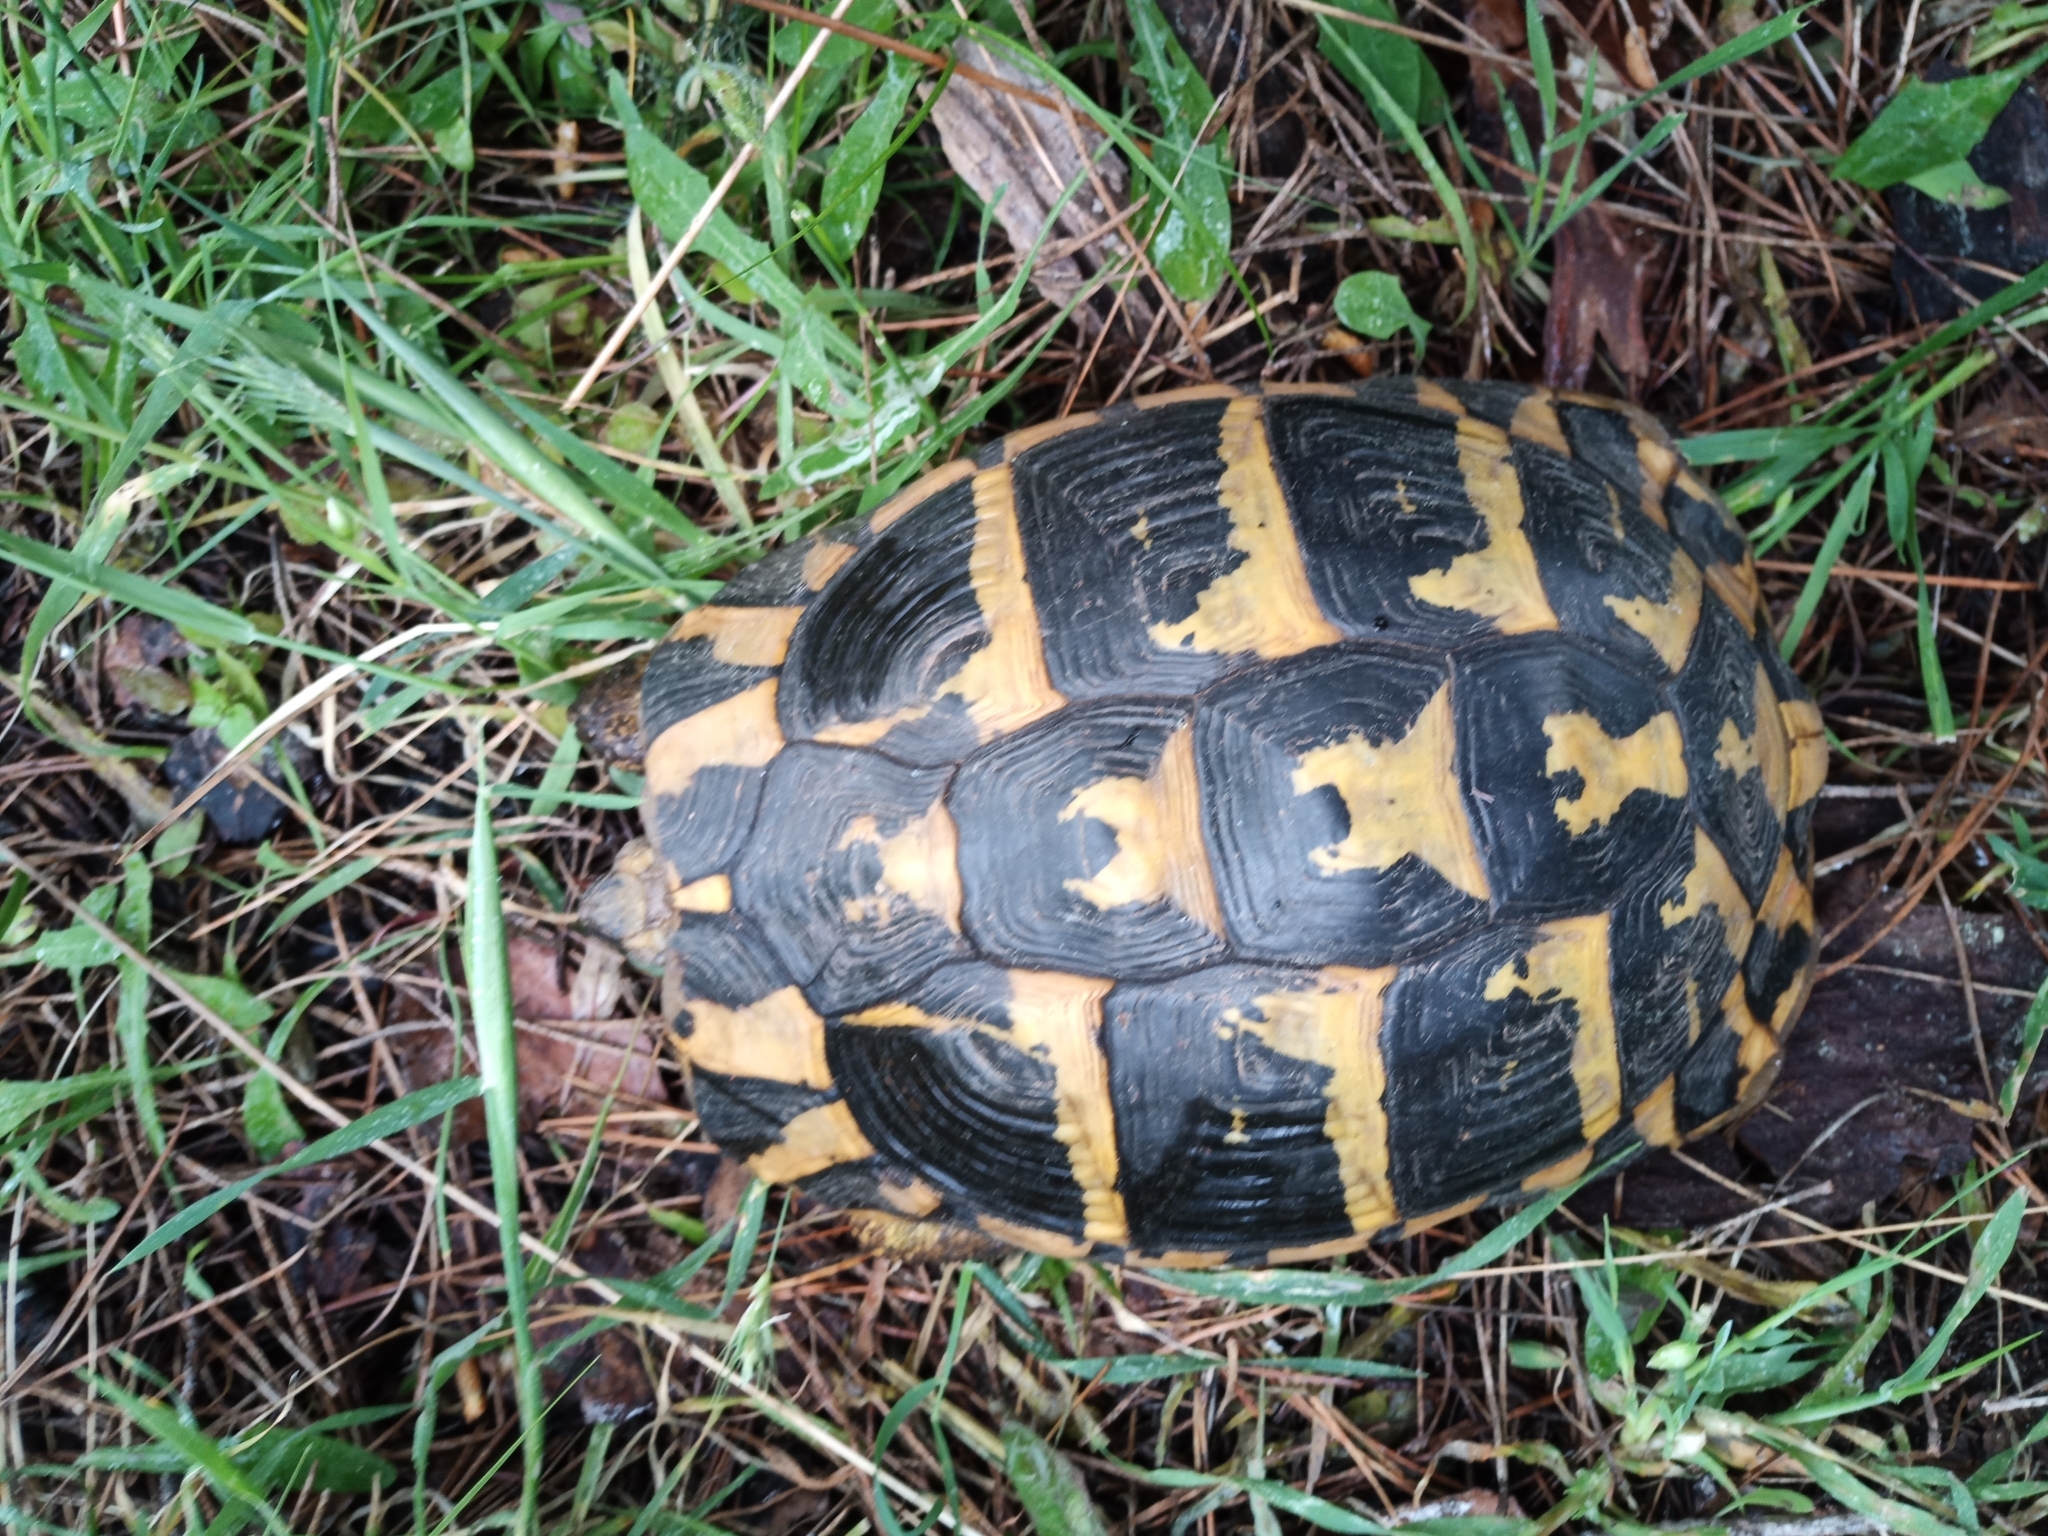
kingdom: Animalia
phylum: Chordata
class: Testudines
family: Testudinidae
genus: Testudo
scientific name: Testudo hermanni
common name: Hermann's tortoise
